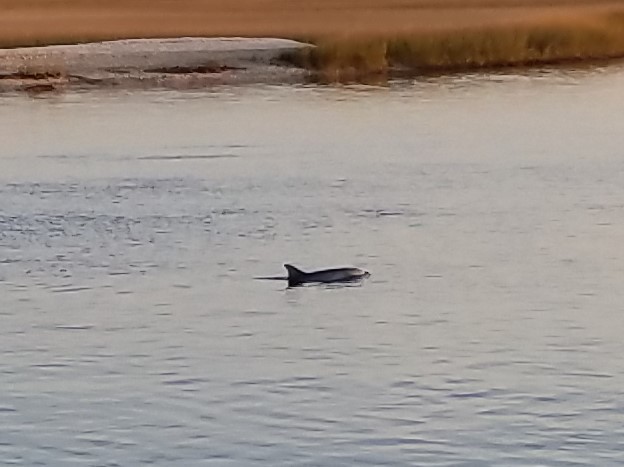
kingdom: Animalia
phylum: Chordata
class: Mammalia
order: Cetacea
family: Delphinidae
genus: Tursiops
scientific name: Tursiops truncatus
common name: Bottlenose dolphin
